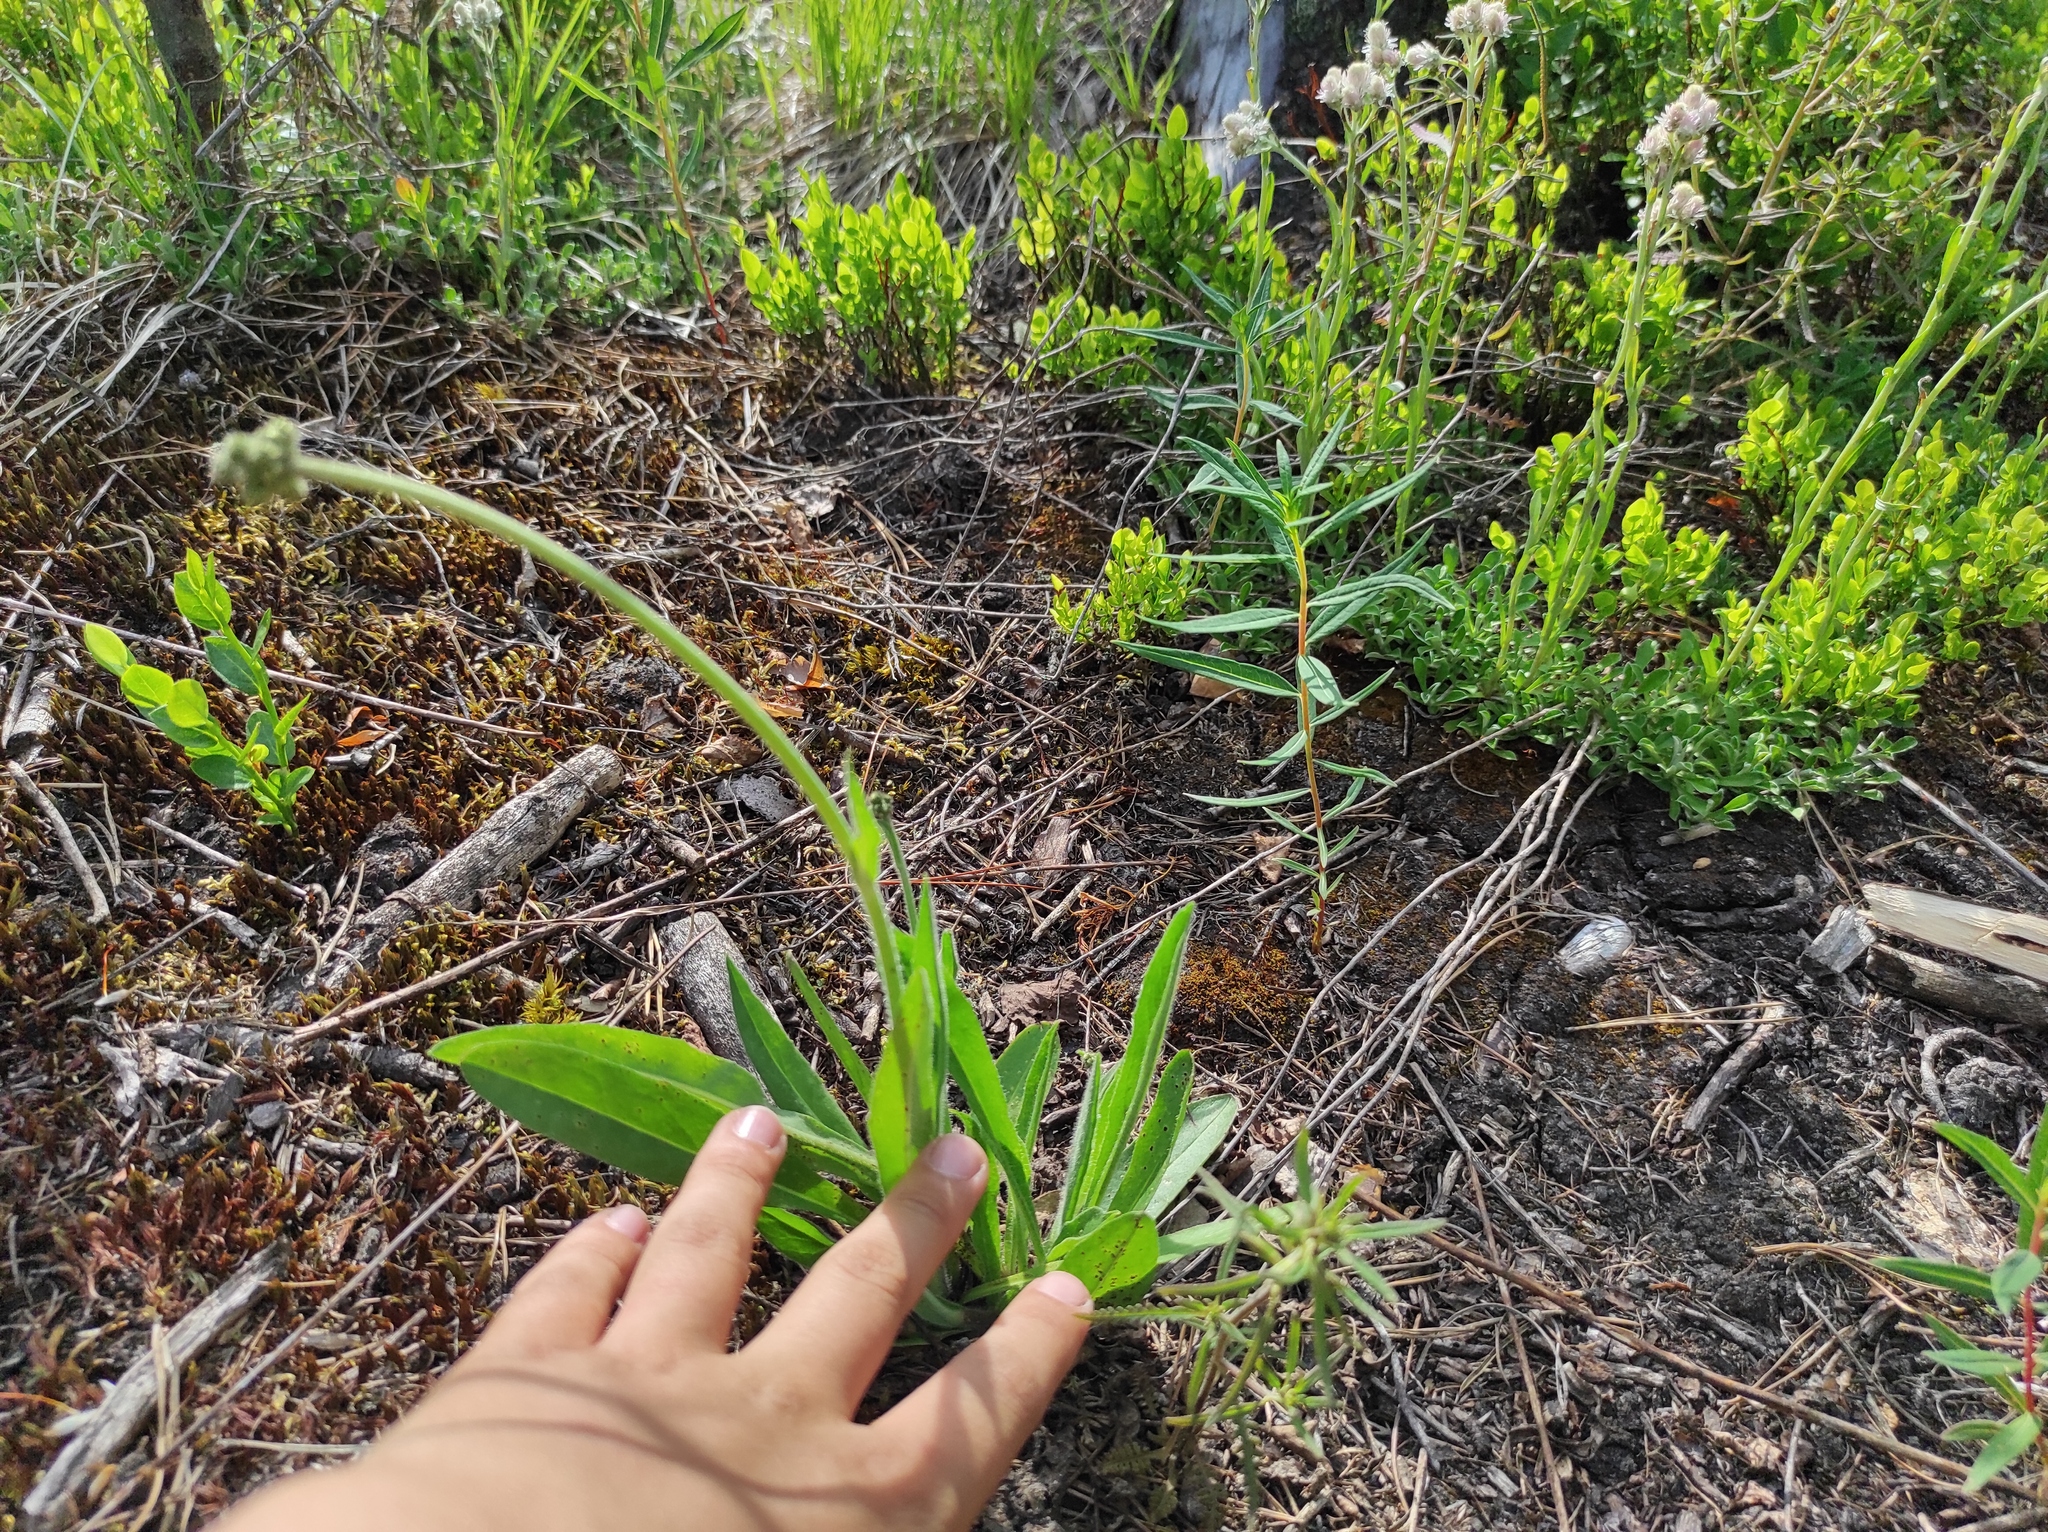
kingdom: Plantae
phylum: Tracheophyta
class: Magnoliopsida
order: Myrtales
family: Onagraceae
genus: Chamaenerion
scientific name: Chamaenerion angustifolium
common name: Fireweed
